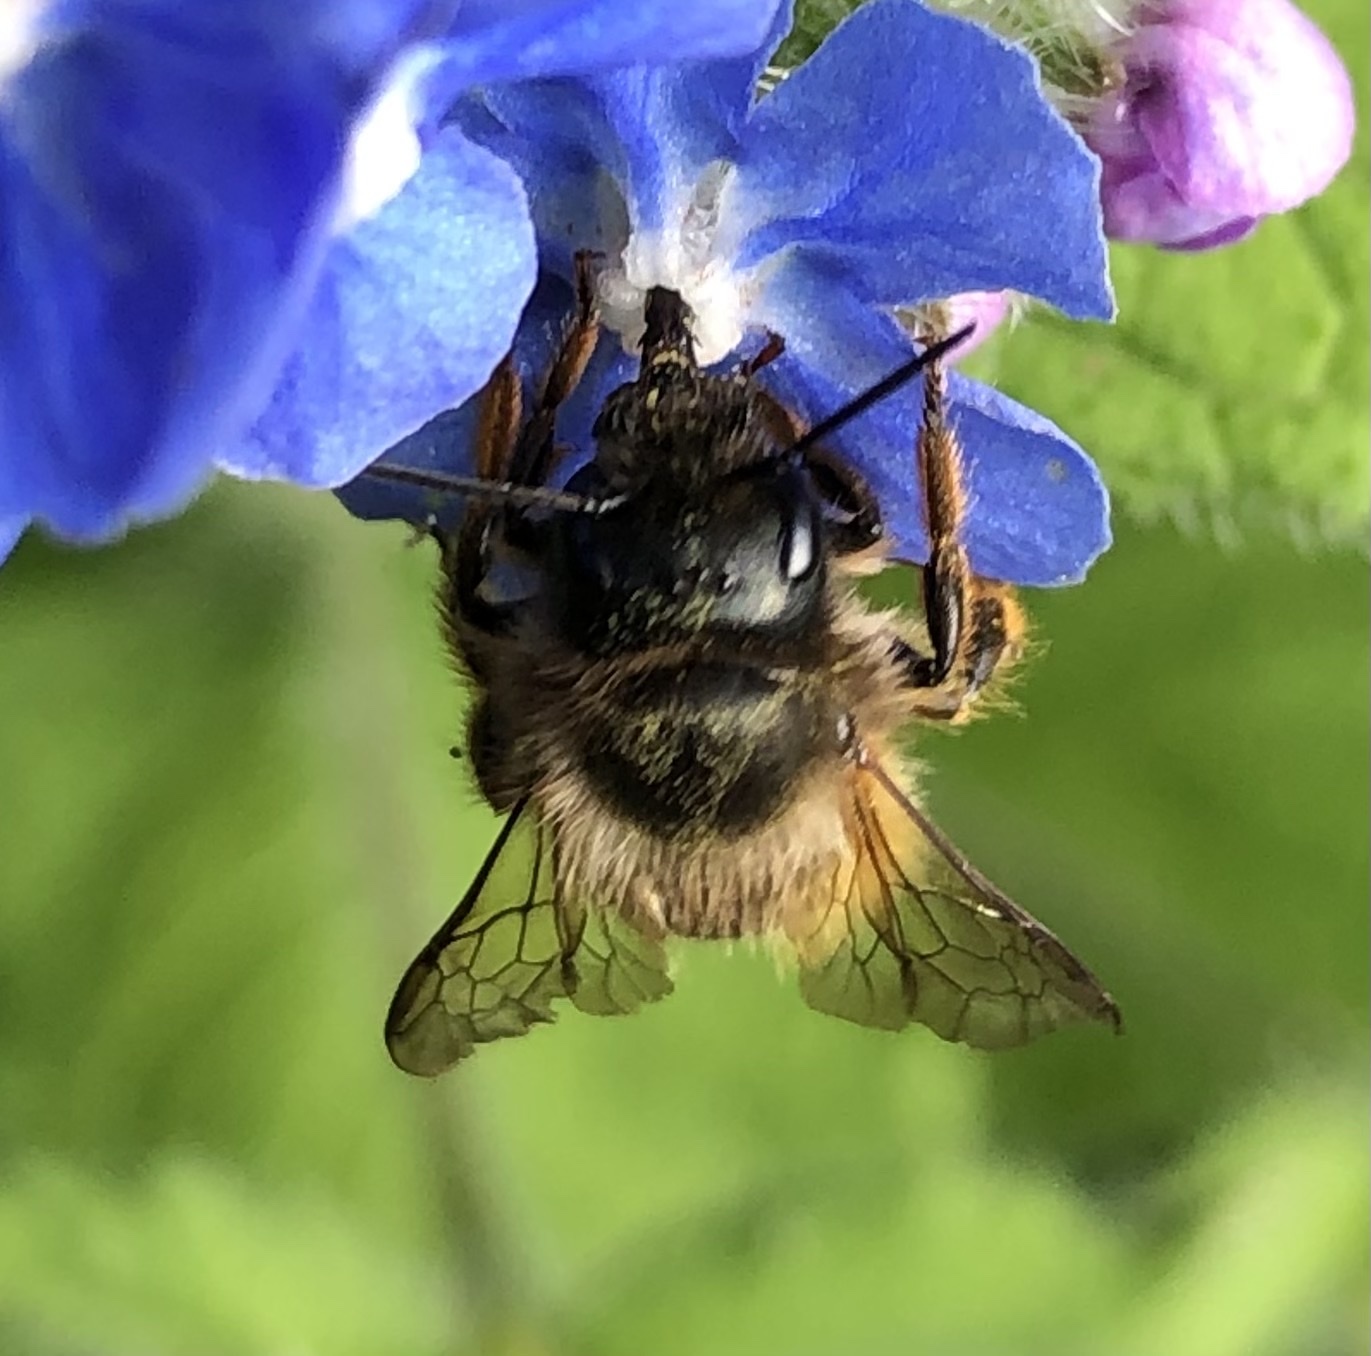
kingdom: Animalia
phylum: Arthropoda
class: Insecta
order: Hymenoptera
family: Megachilidae
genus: Osmia
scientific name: Osmia bicornis
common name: Red mason bee
